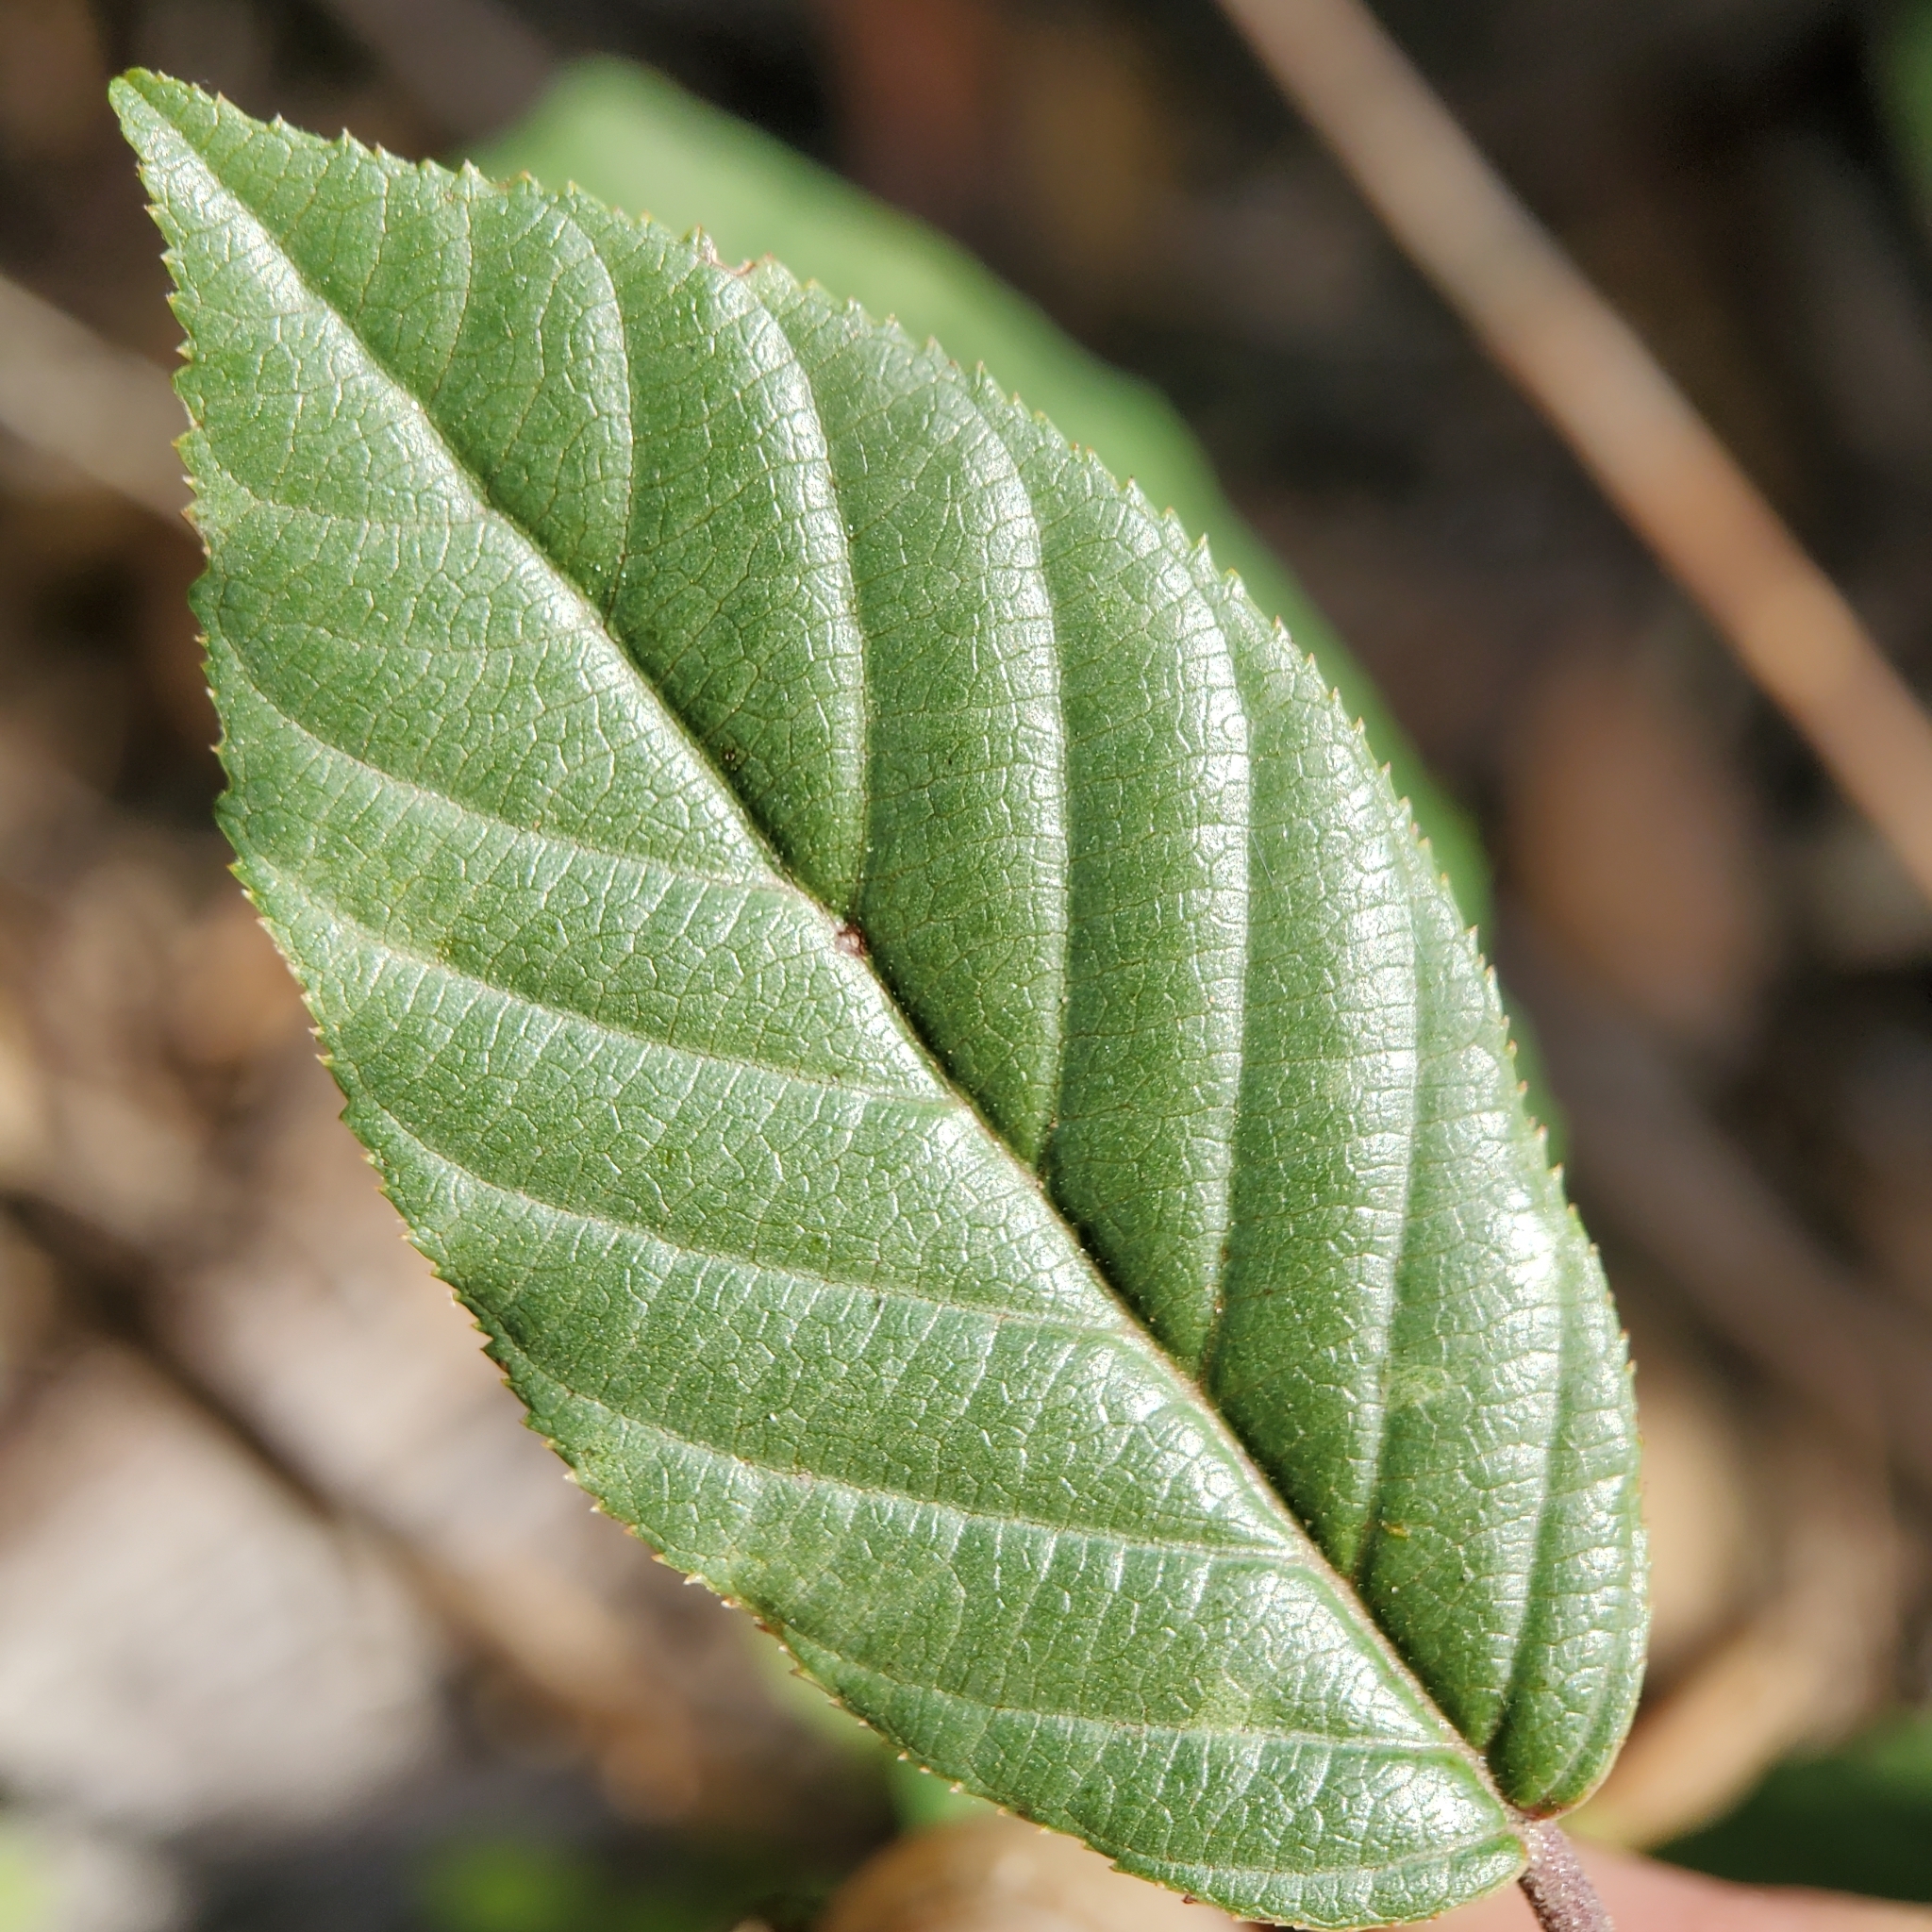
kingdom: Plantae
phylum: Tracheophyta
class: Magnoliopsida
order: Rosales
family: Rhamnaceae
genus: Frangula
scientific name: Frangula californica
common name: California buckthorn
